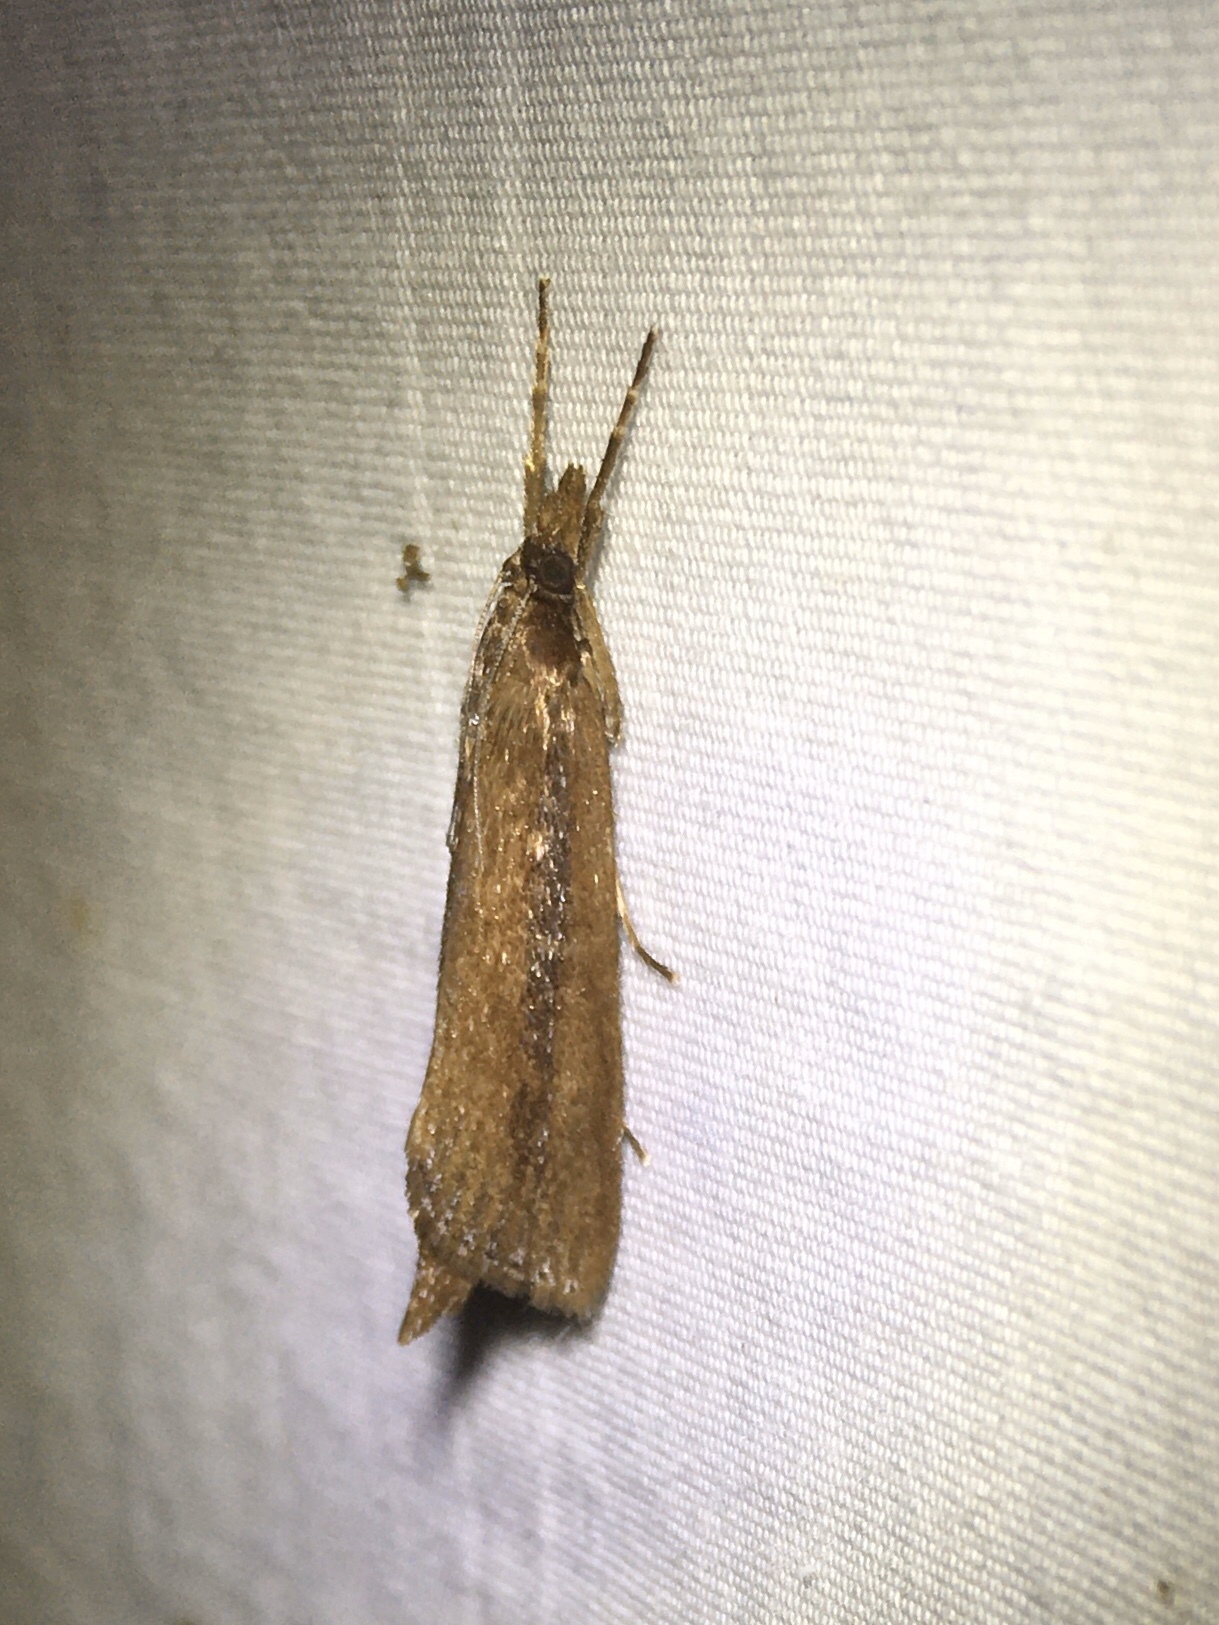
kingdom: Animalia
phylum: Arthropoda
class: Insecta
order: Lepidoptera
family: Crambidae
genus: Carectocultus
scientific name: Carectocultus perstrialis
